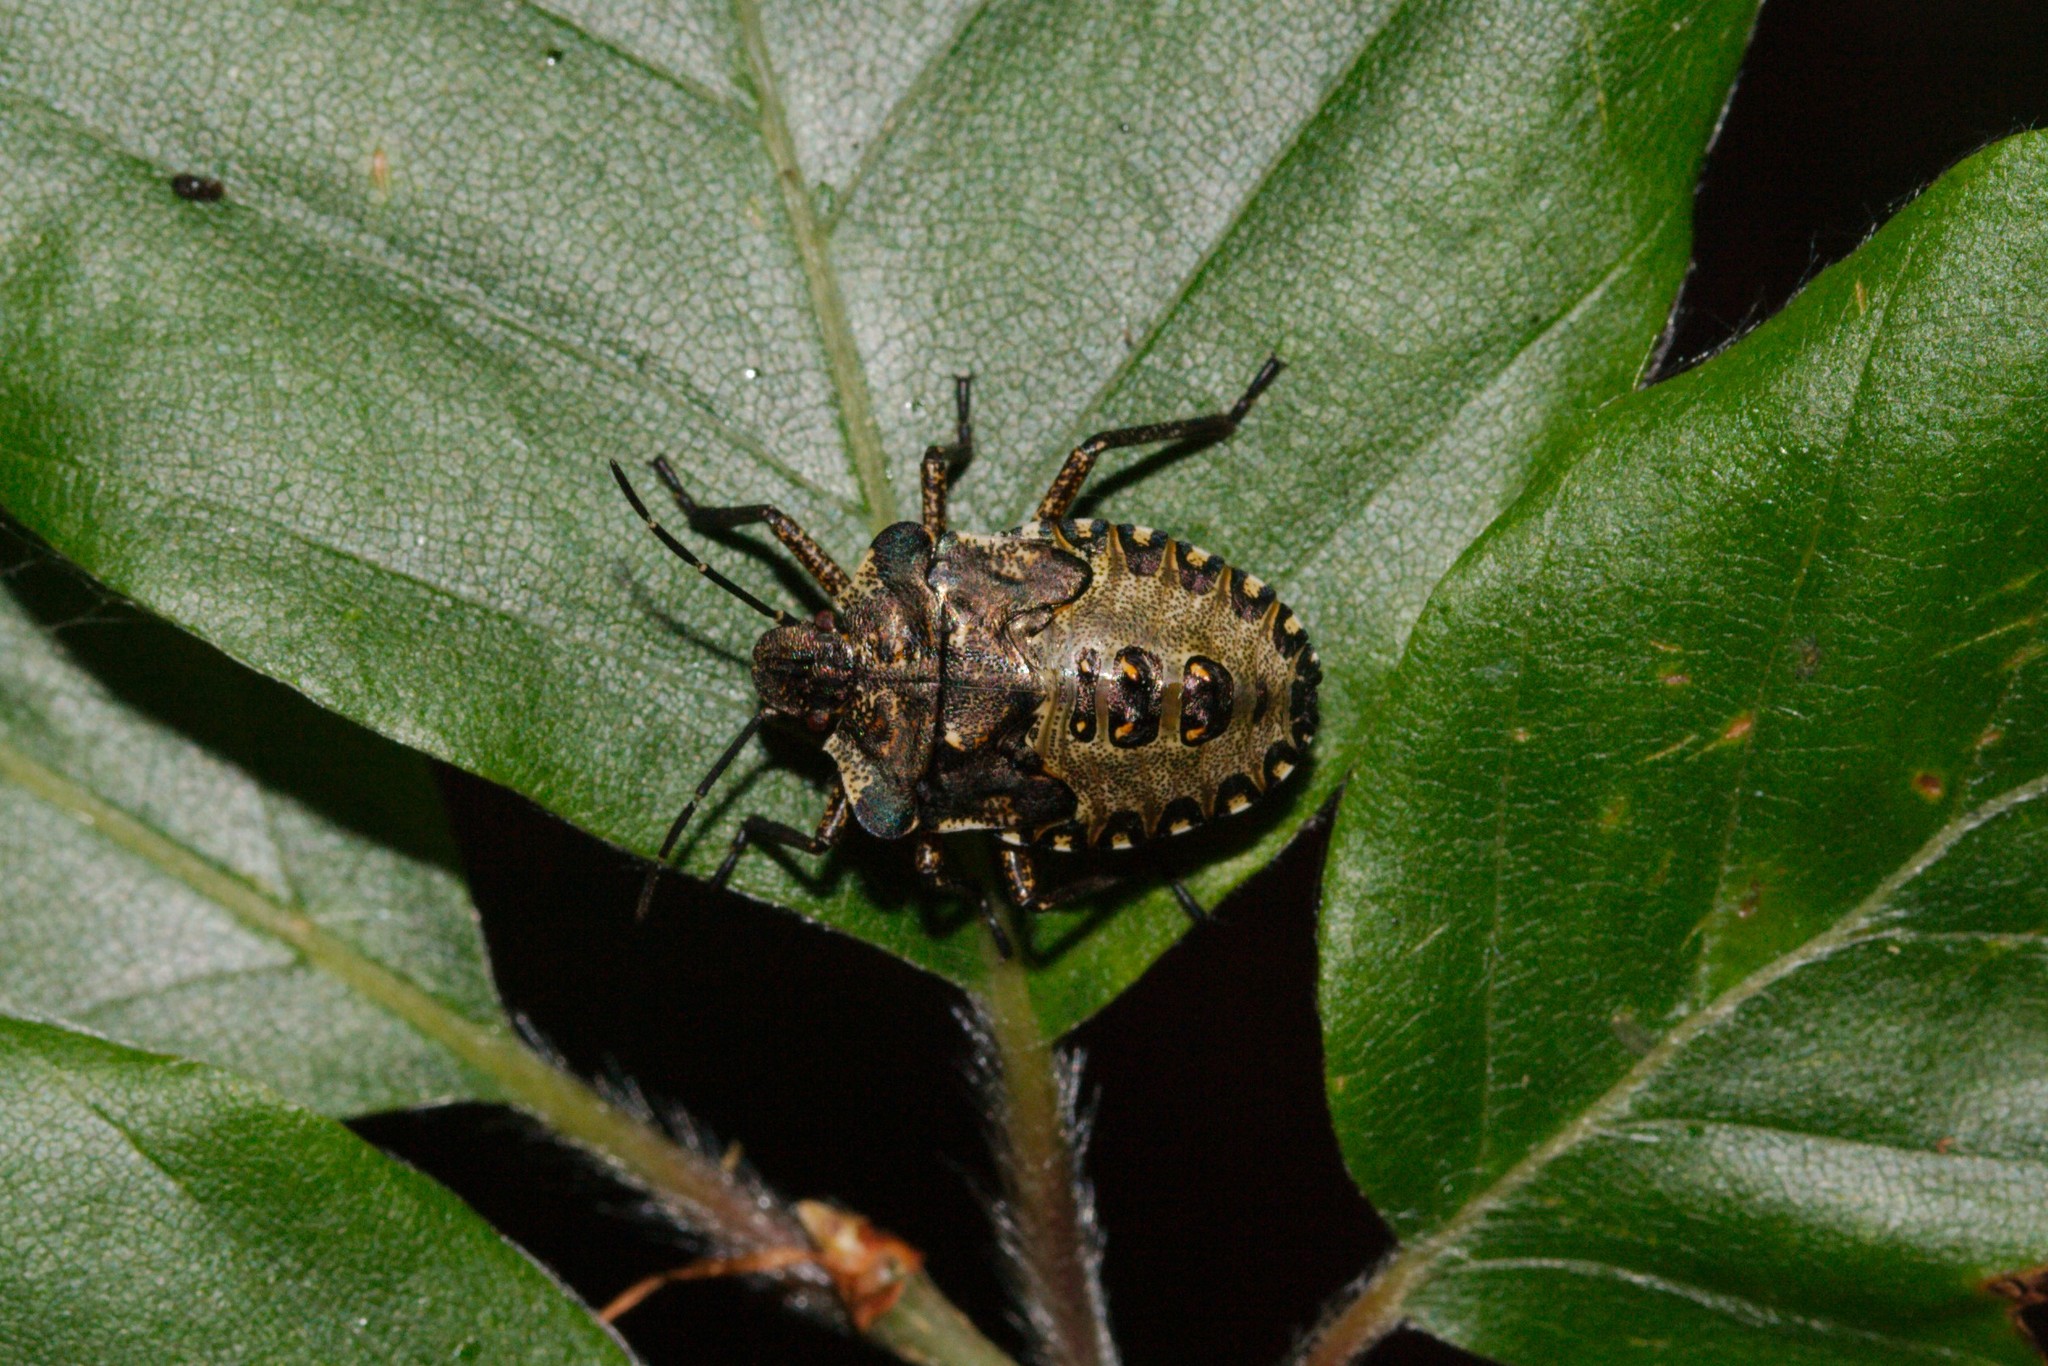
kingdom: Animalia
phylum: Arthropoda
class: Insecta
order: Hemiptera
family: Pentatomidae
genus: Pentatoma
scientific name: Pentatoma rufipes
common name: Forest bug
